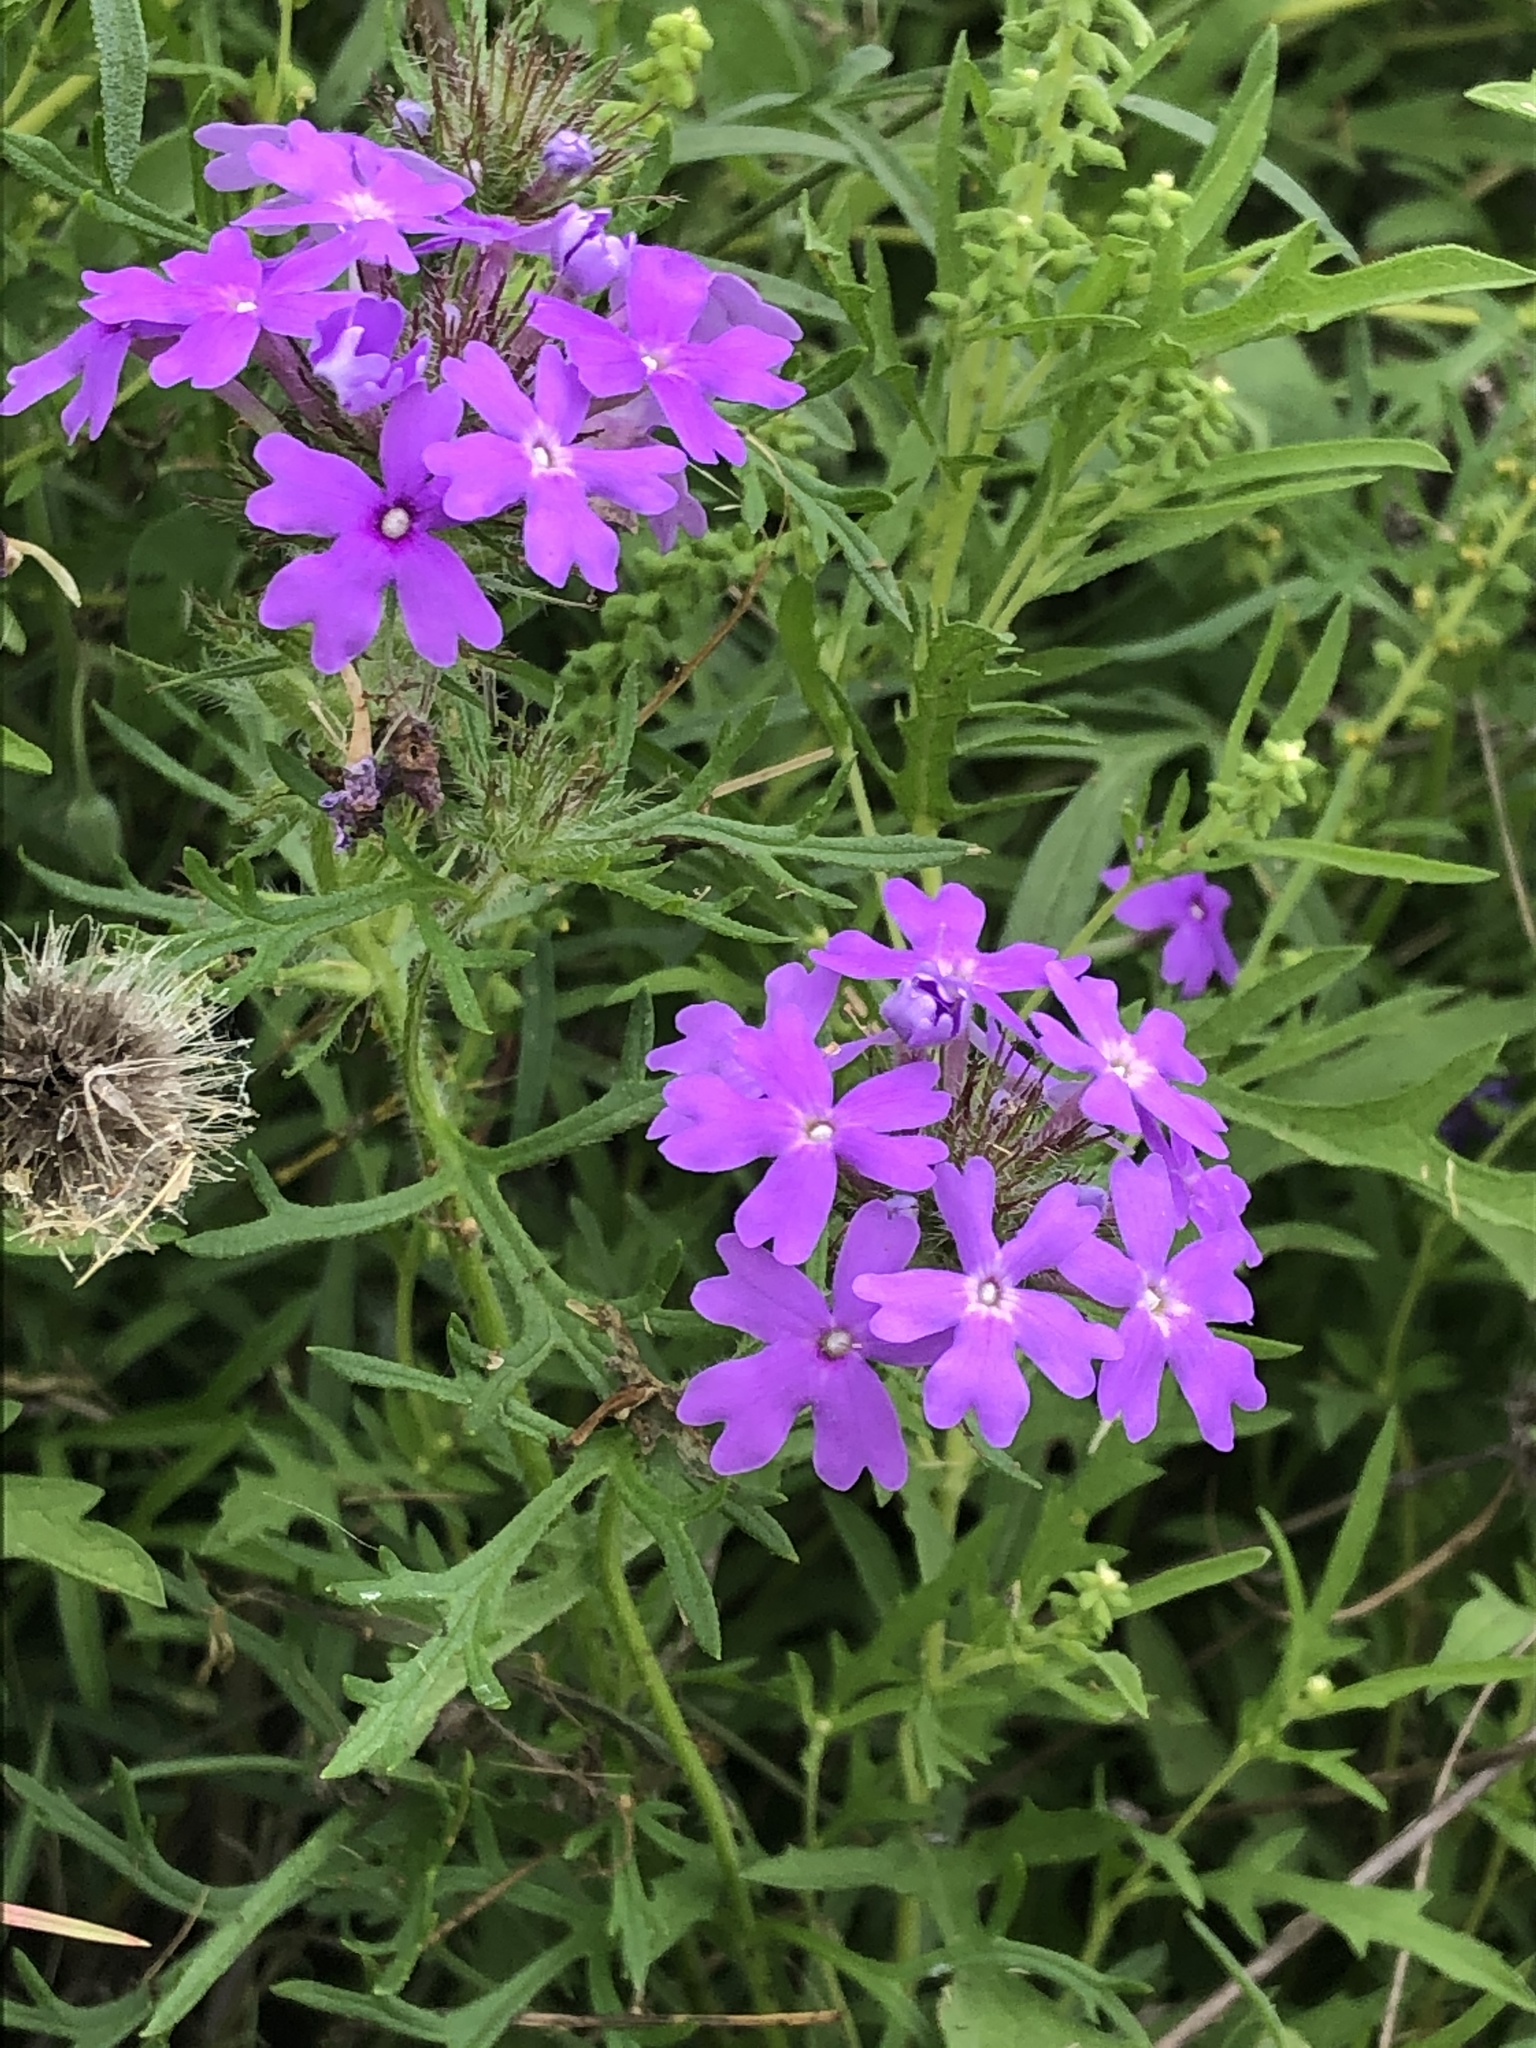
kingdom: Plantae
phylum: Tracheophyta
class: Magnoliopsida
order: Lamiales
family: Verbenaceae
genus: Verbena
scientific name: Verbena bipinnatifida
